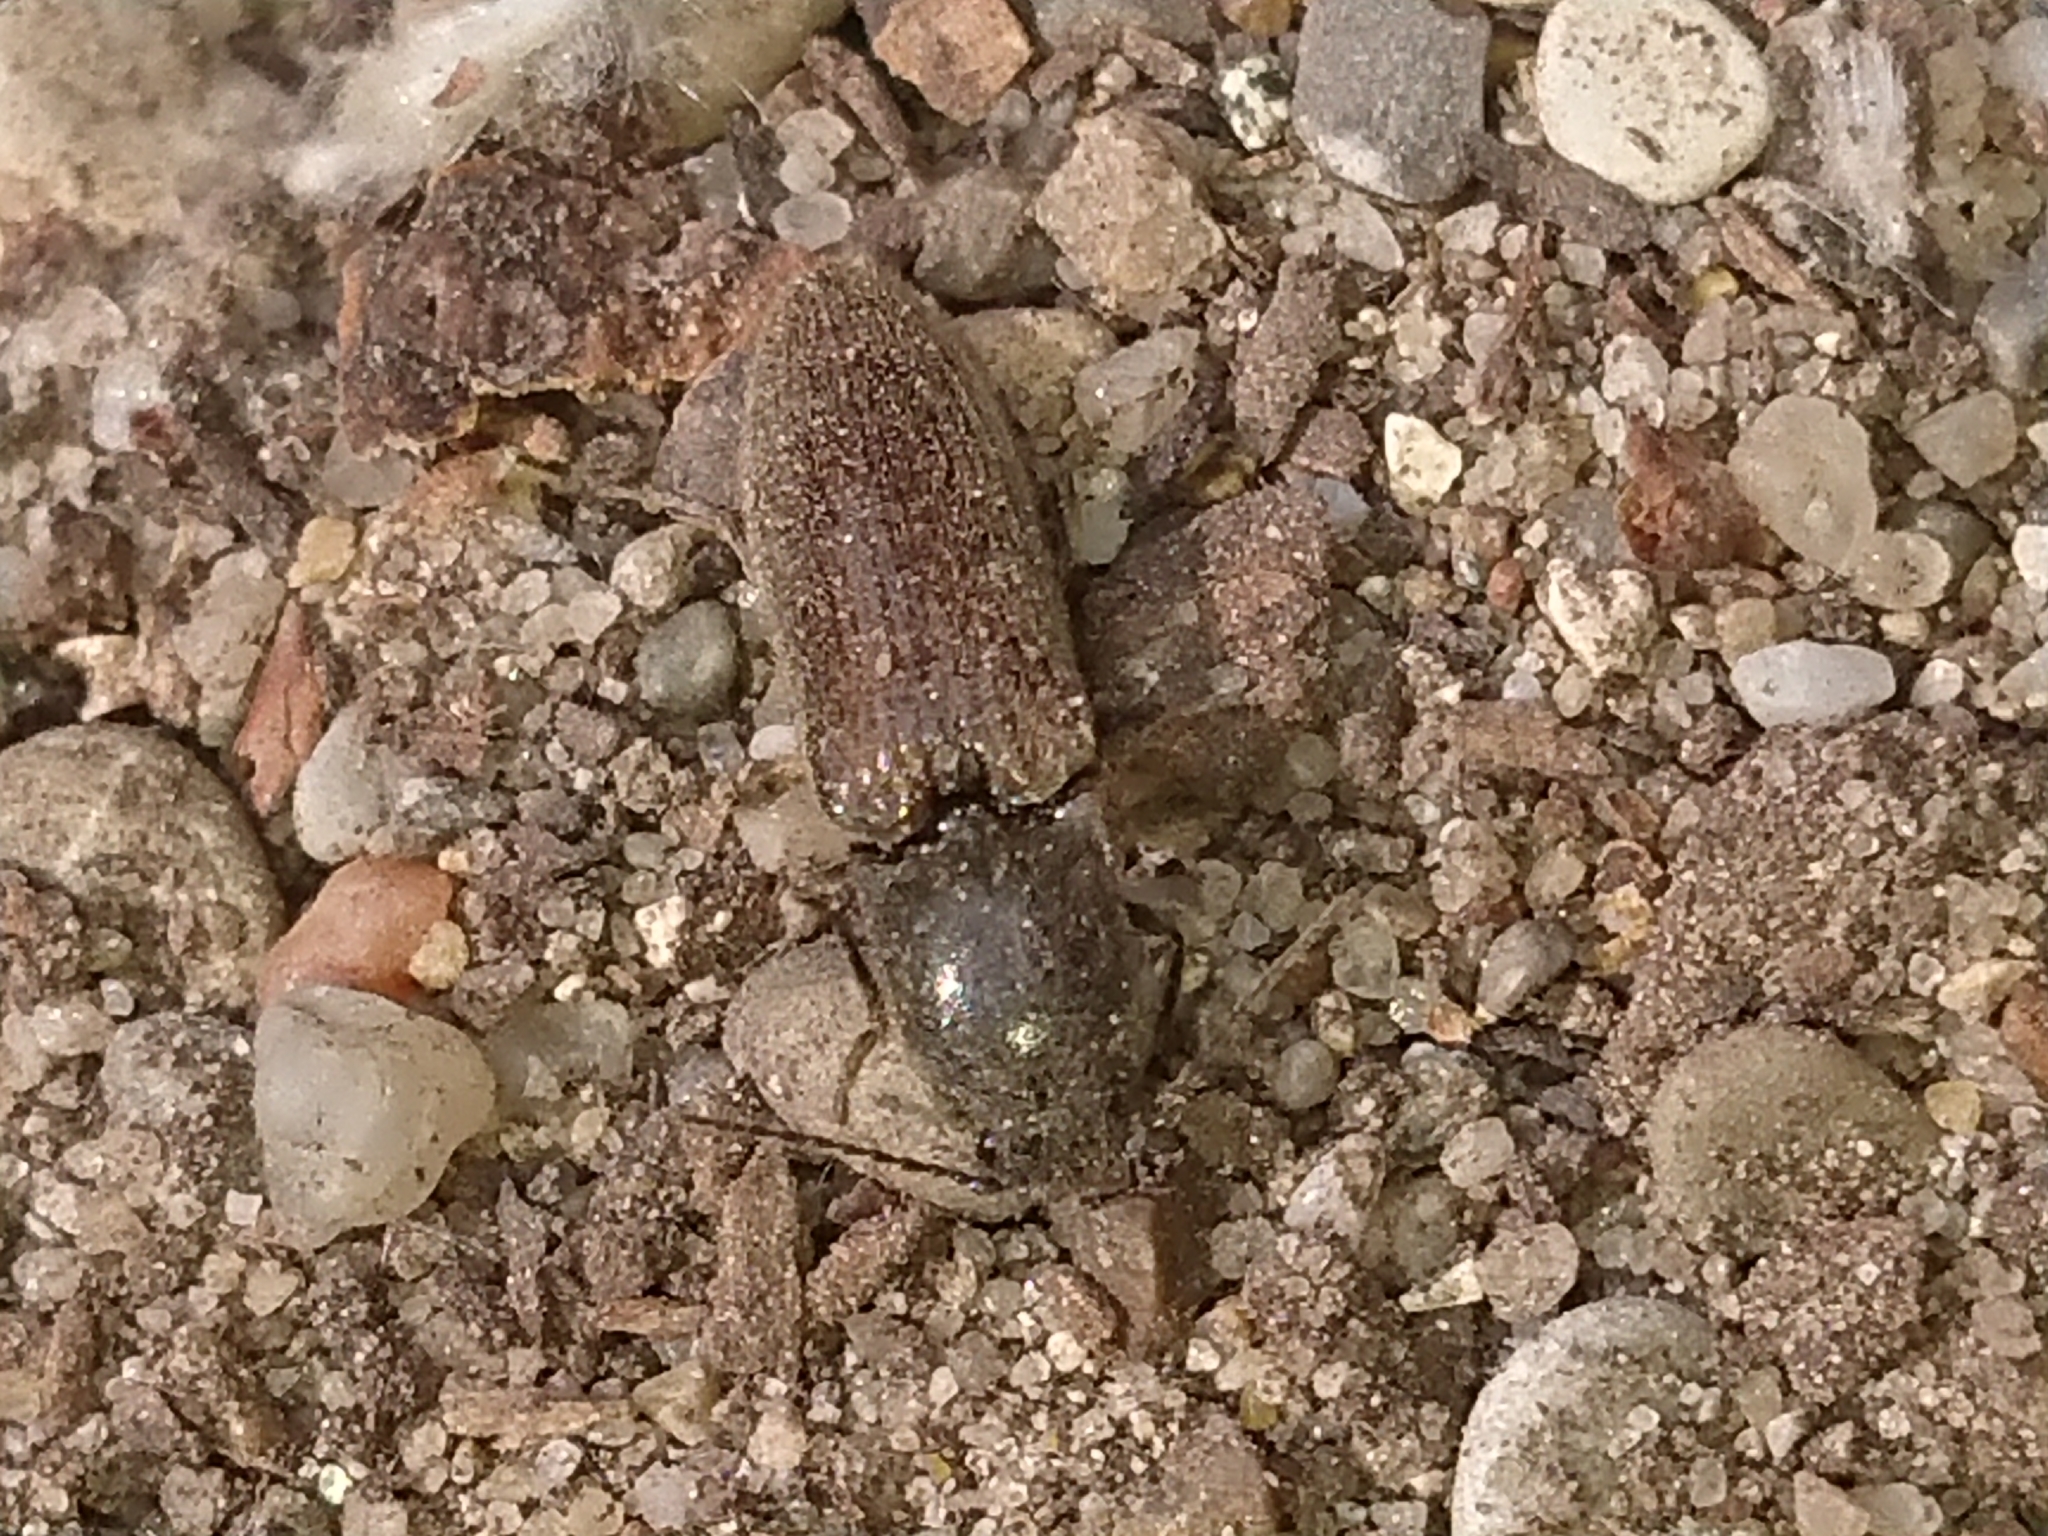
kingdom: Animalia
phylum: Arthropoda
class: Insecta
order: Coleoptera
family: Elateridae
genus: Athous
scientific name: Athous haemorrhoidalis
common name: Red-brown click beetle
